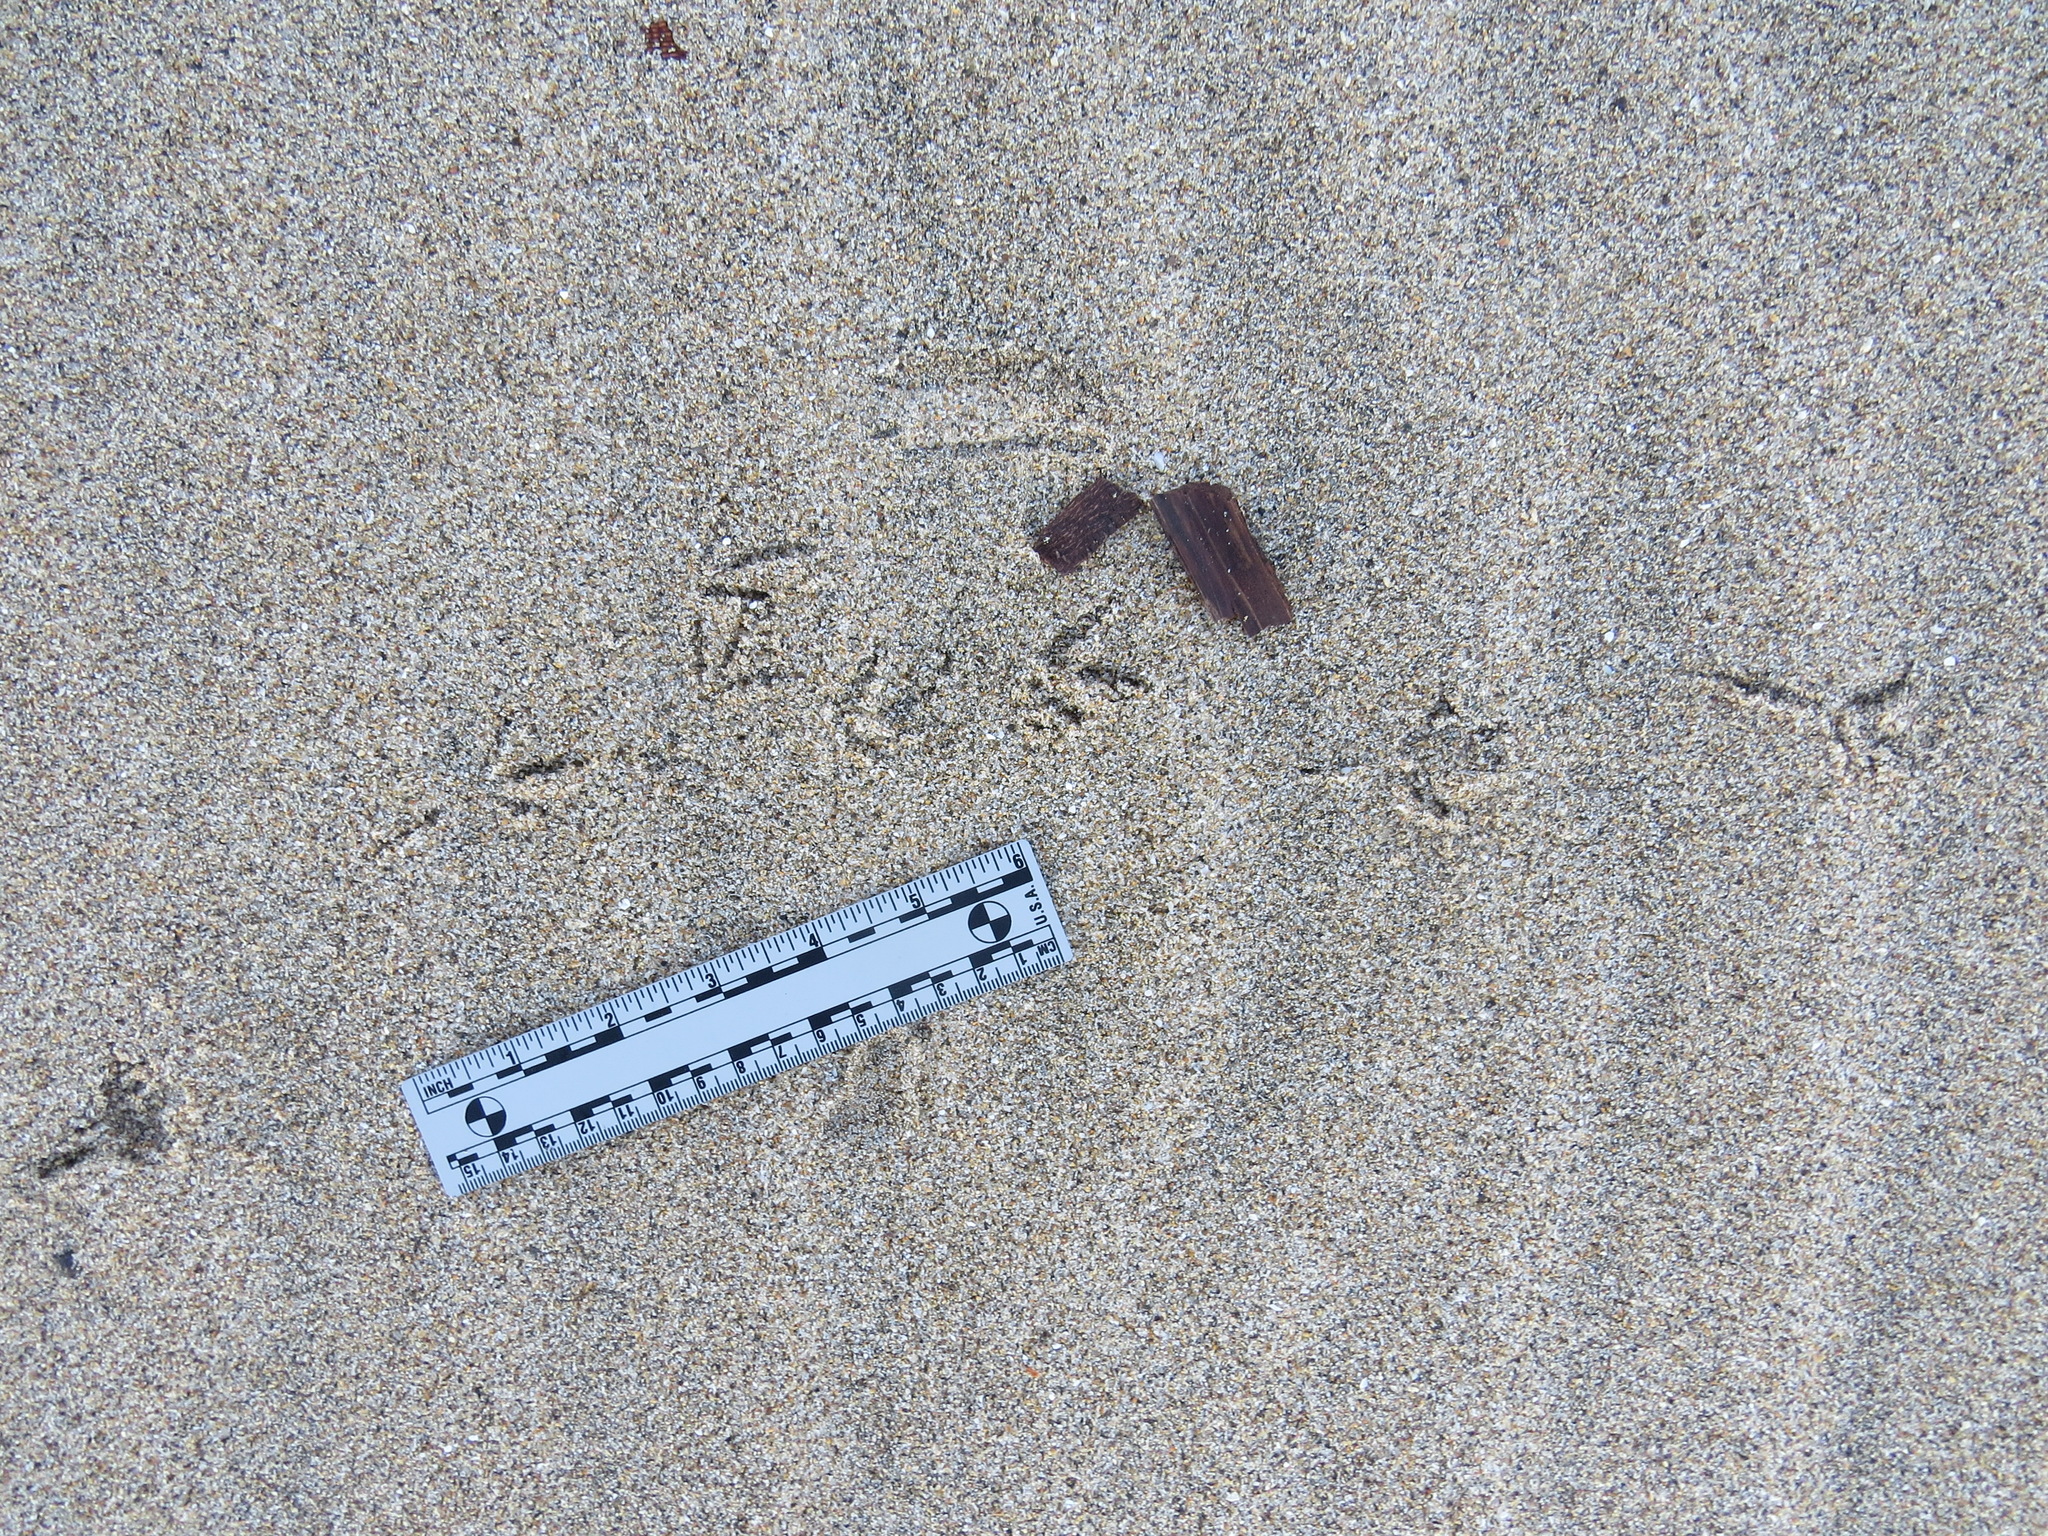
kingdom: Animalia
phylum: Chordata
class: Aves
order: Passeriformes
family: Icteridae
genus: Euphagus
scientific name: Euphagus cyanocephalus
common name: Brewer's blackbird
